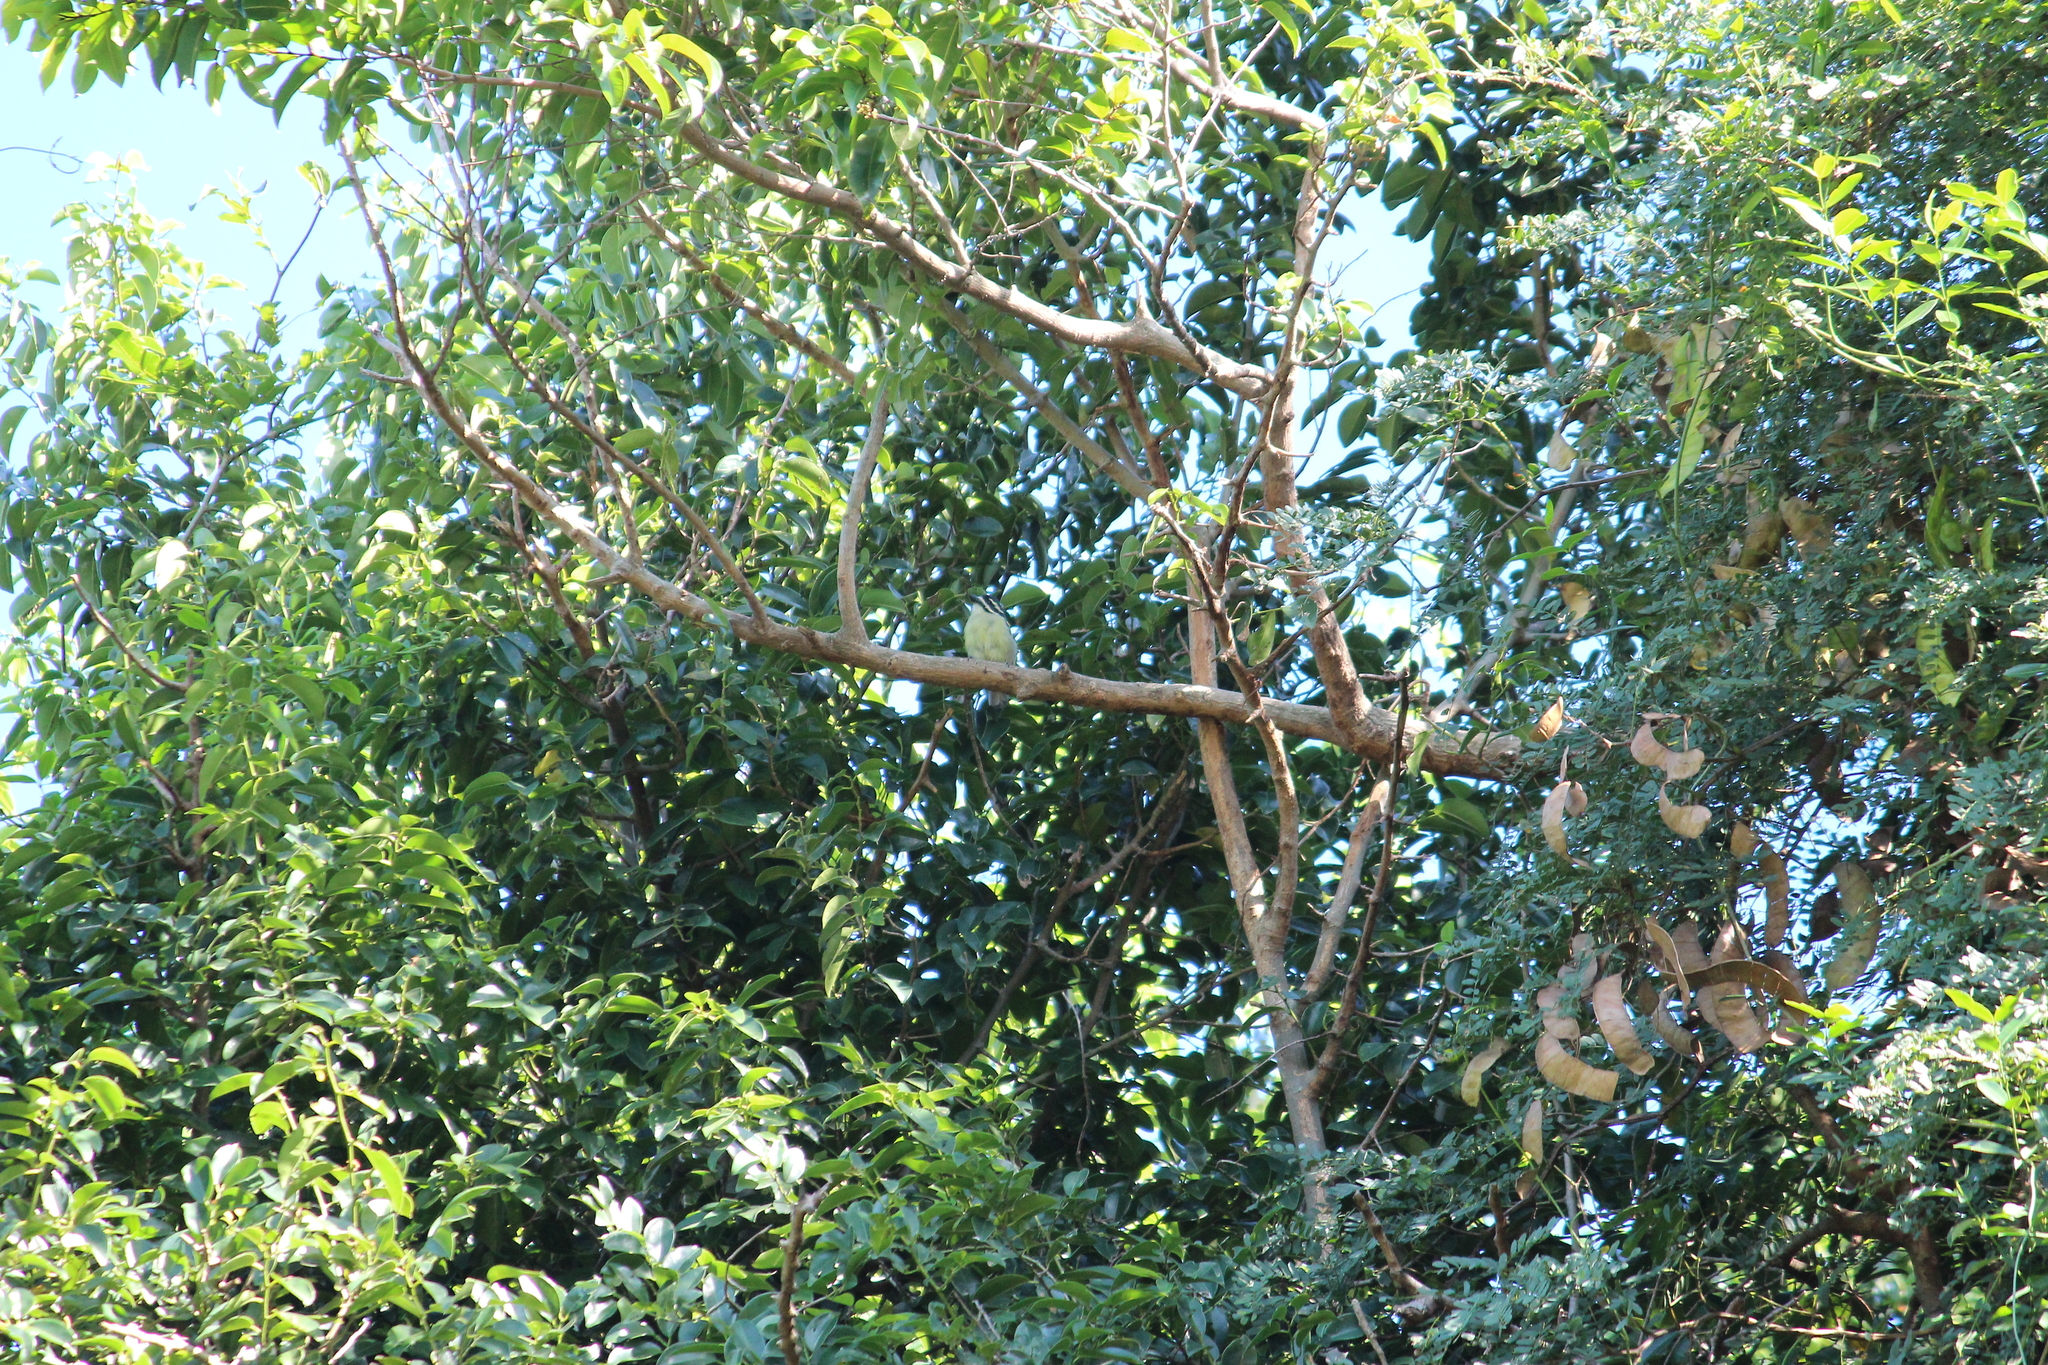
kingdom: Animalia
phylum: Chordata
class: Aves
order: Piciformes
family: Lybiidae
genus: Pogoniulus
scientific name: Pogoniulus bilineatus
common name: Yellow-rumped tinkerbird
